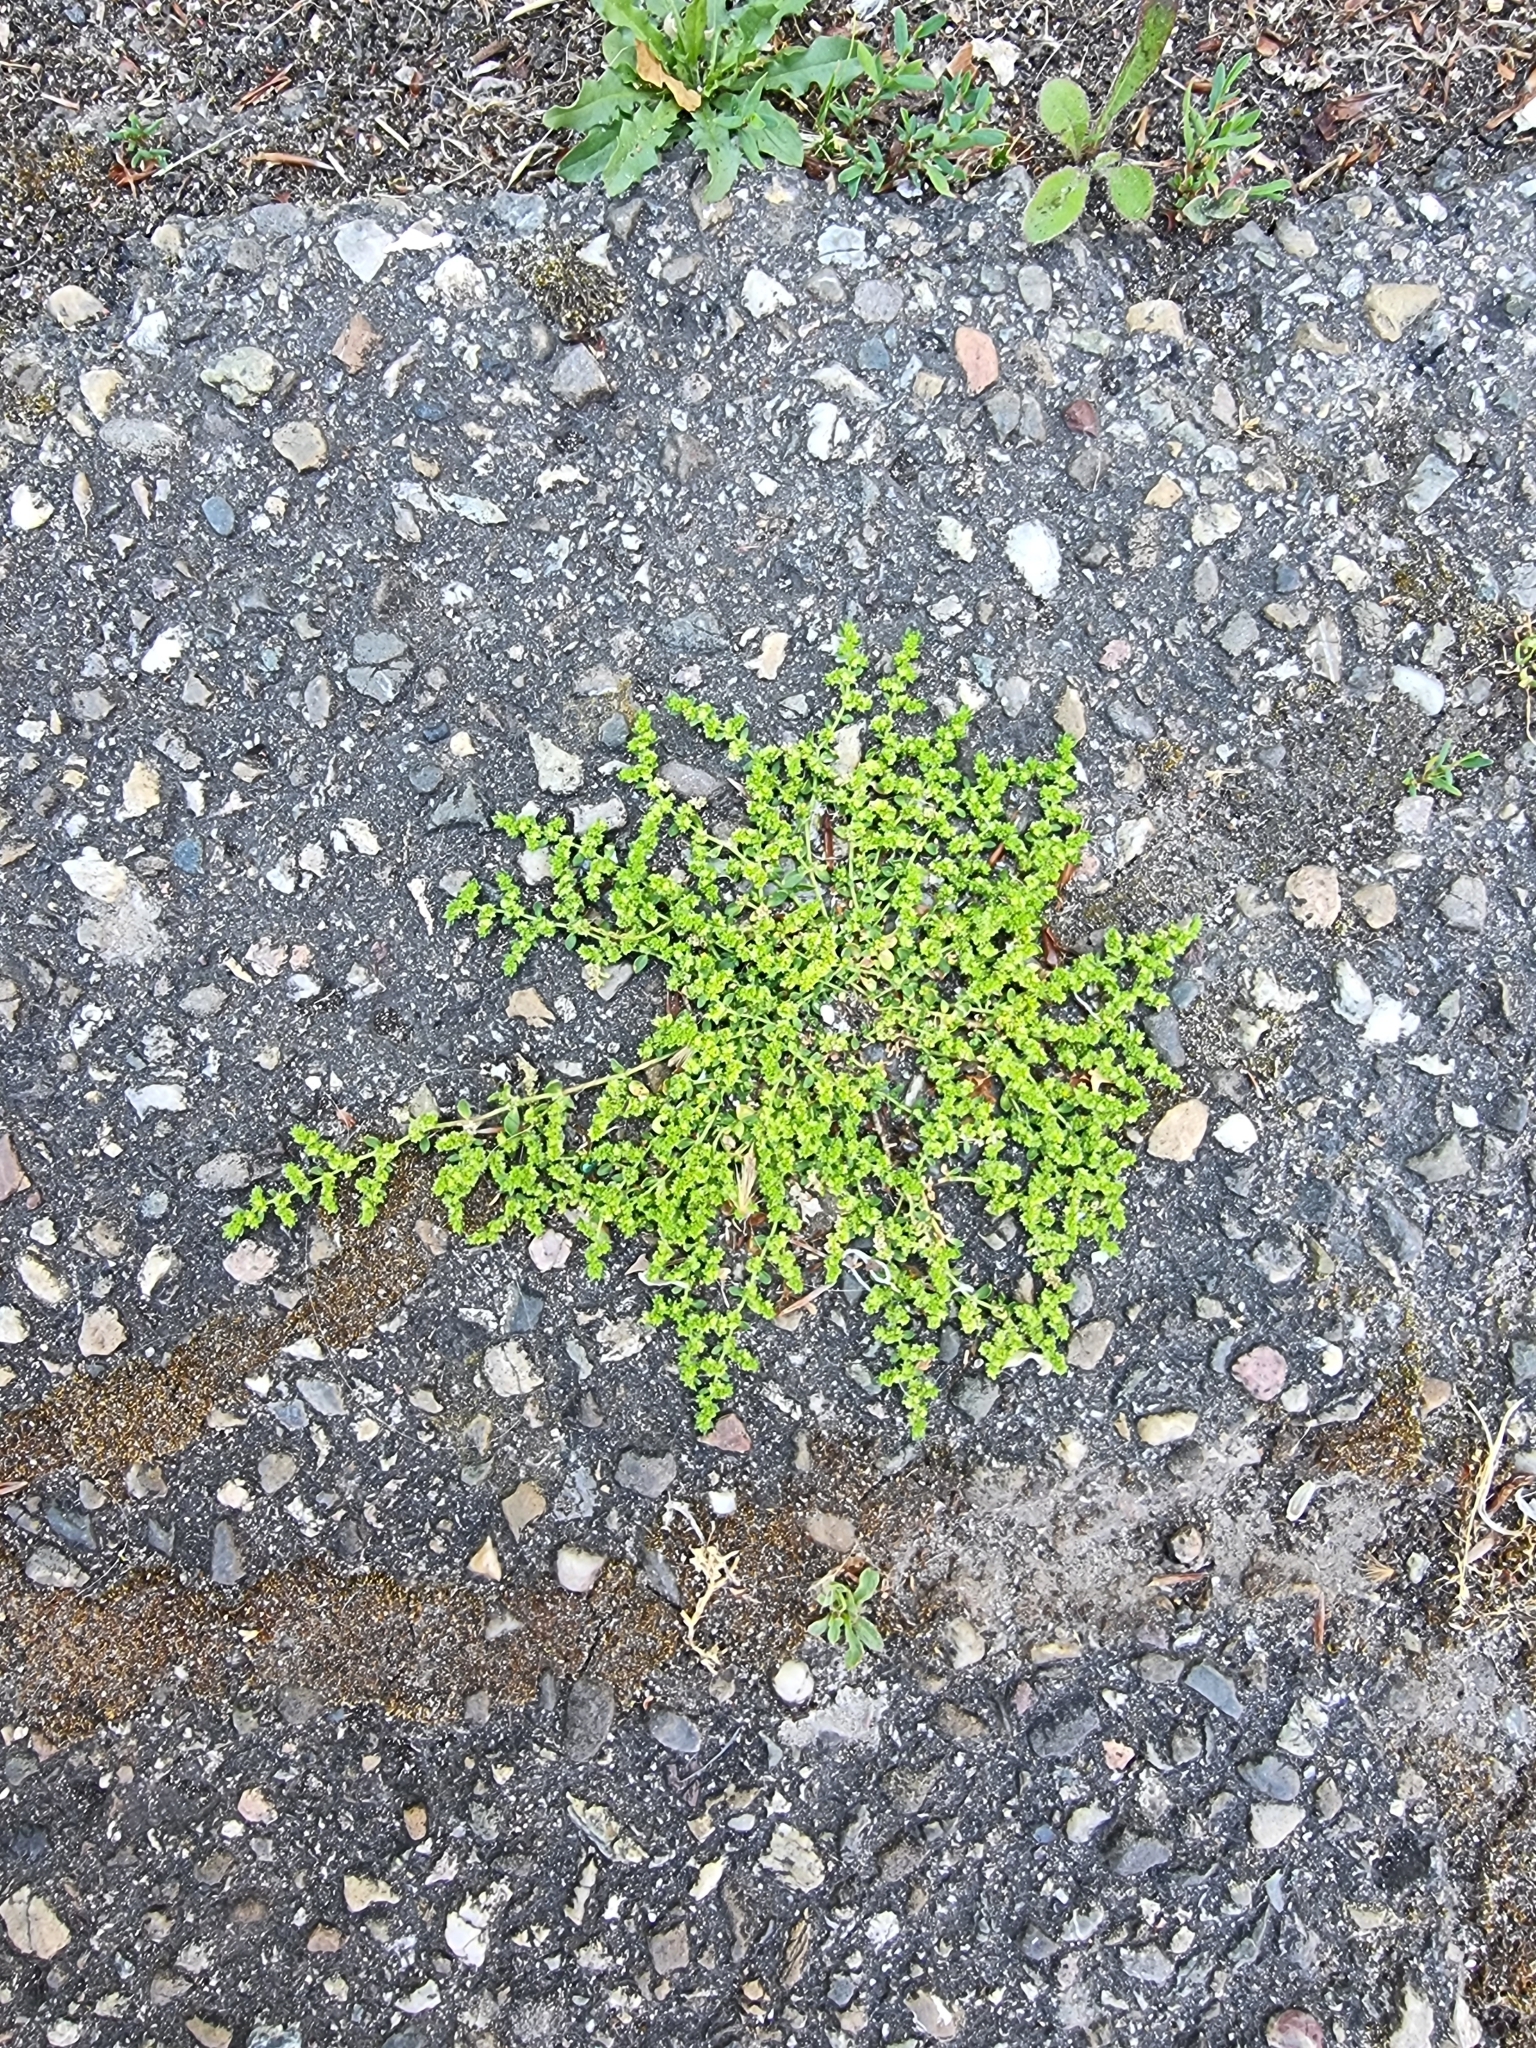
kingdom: Plantae
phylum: Tracheophyta
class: Magnoliopsida
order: Caryophyllales
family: Caryophyllaceae
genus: Herniaria
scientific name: Herniaria glabra
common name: Smooth rupturewort
